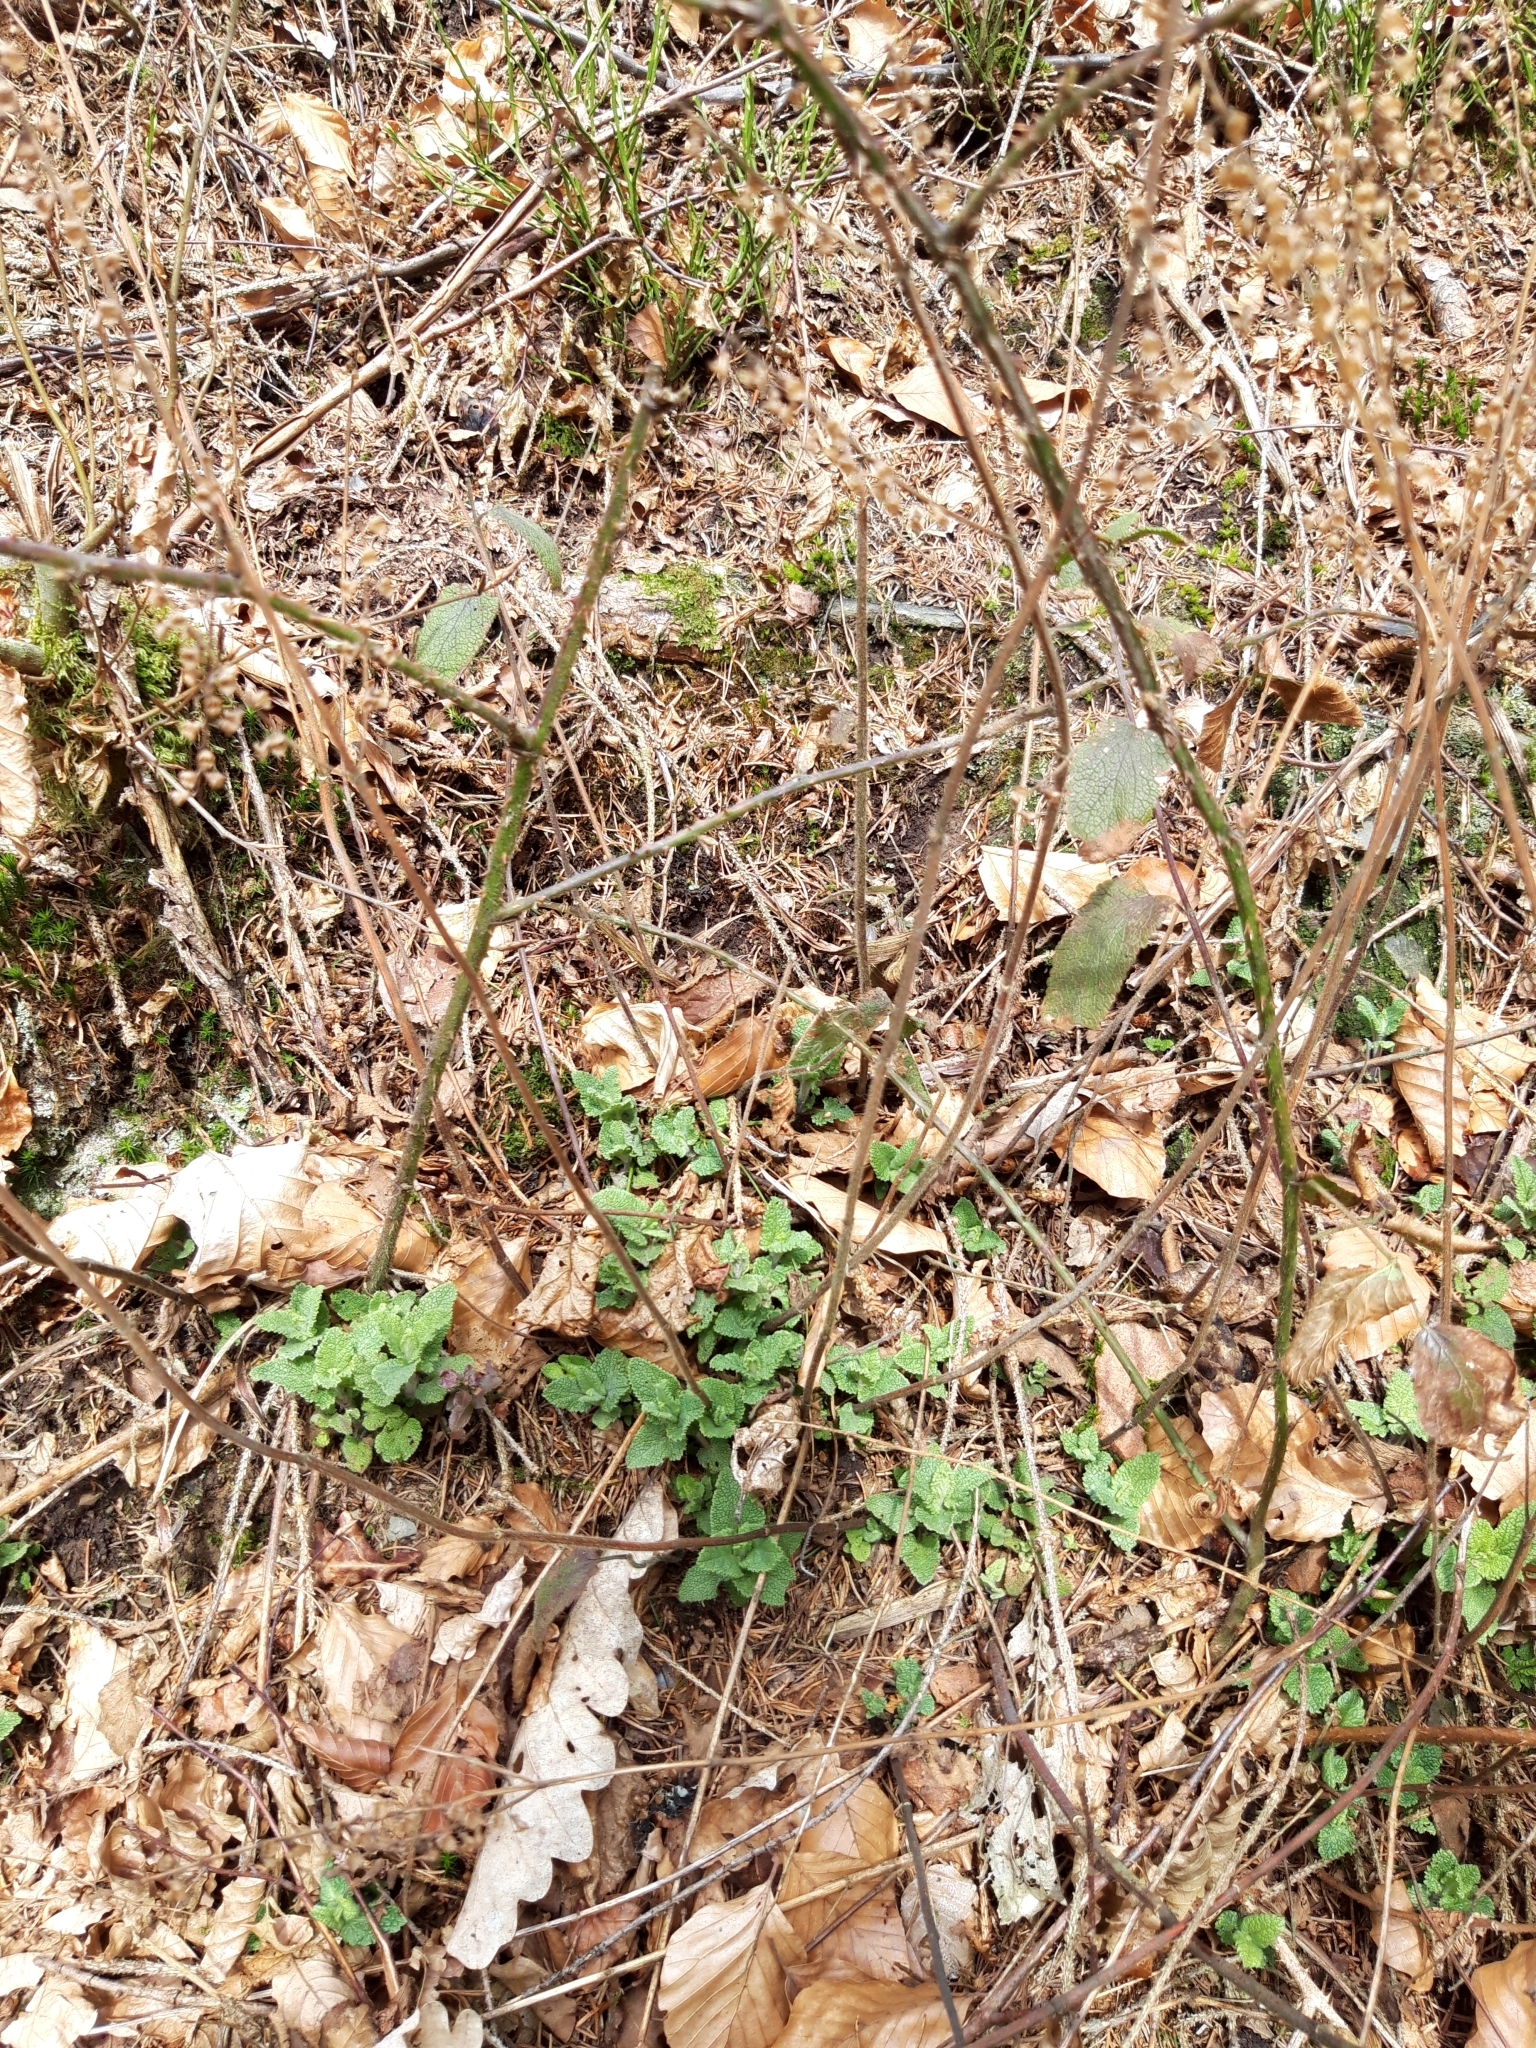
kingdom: Plantae
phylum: Tracheophyta
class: Magnoliopsida
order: Lamiales
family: Lamiaceae
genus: Teucrium
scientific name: Teucrium scorodonia
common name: Woodland germander
